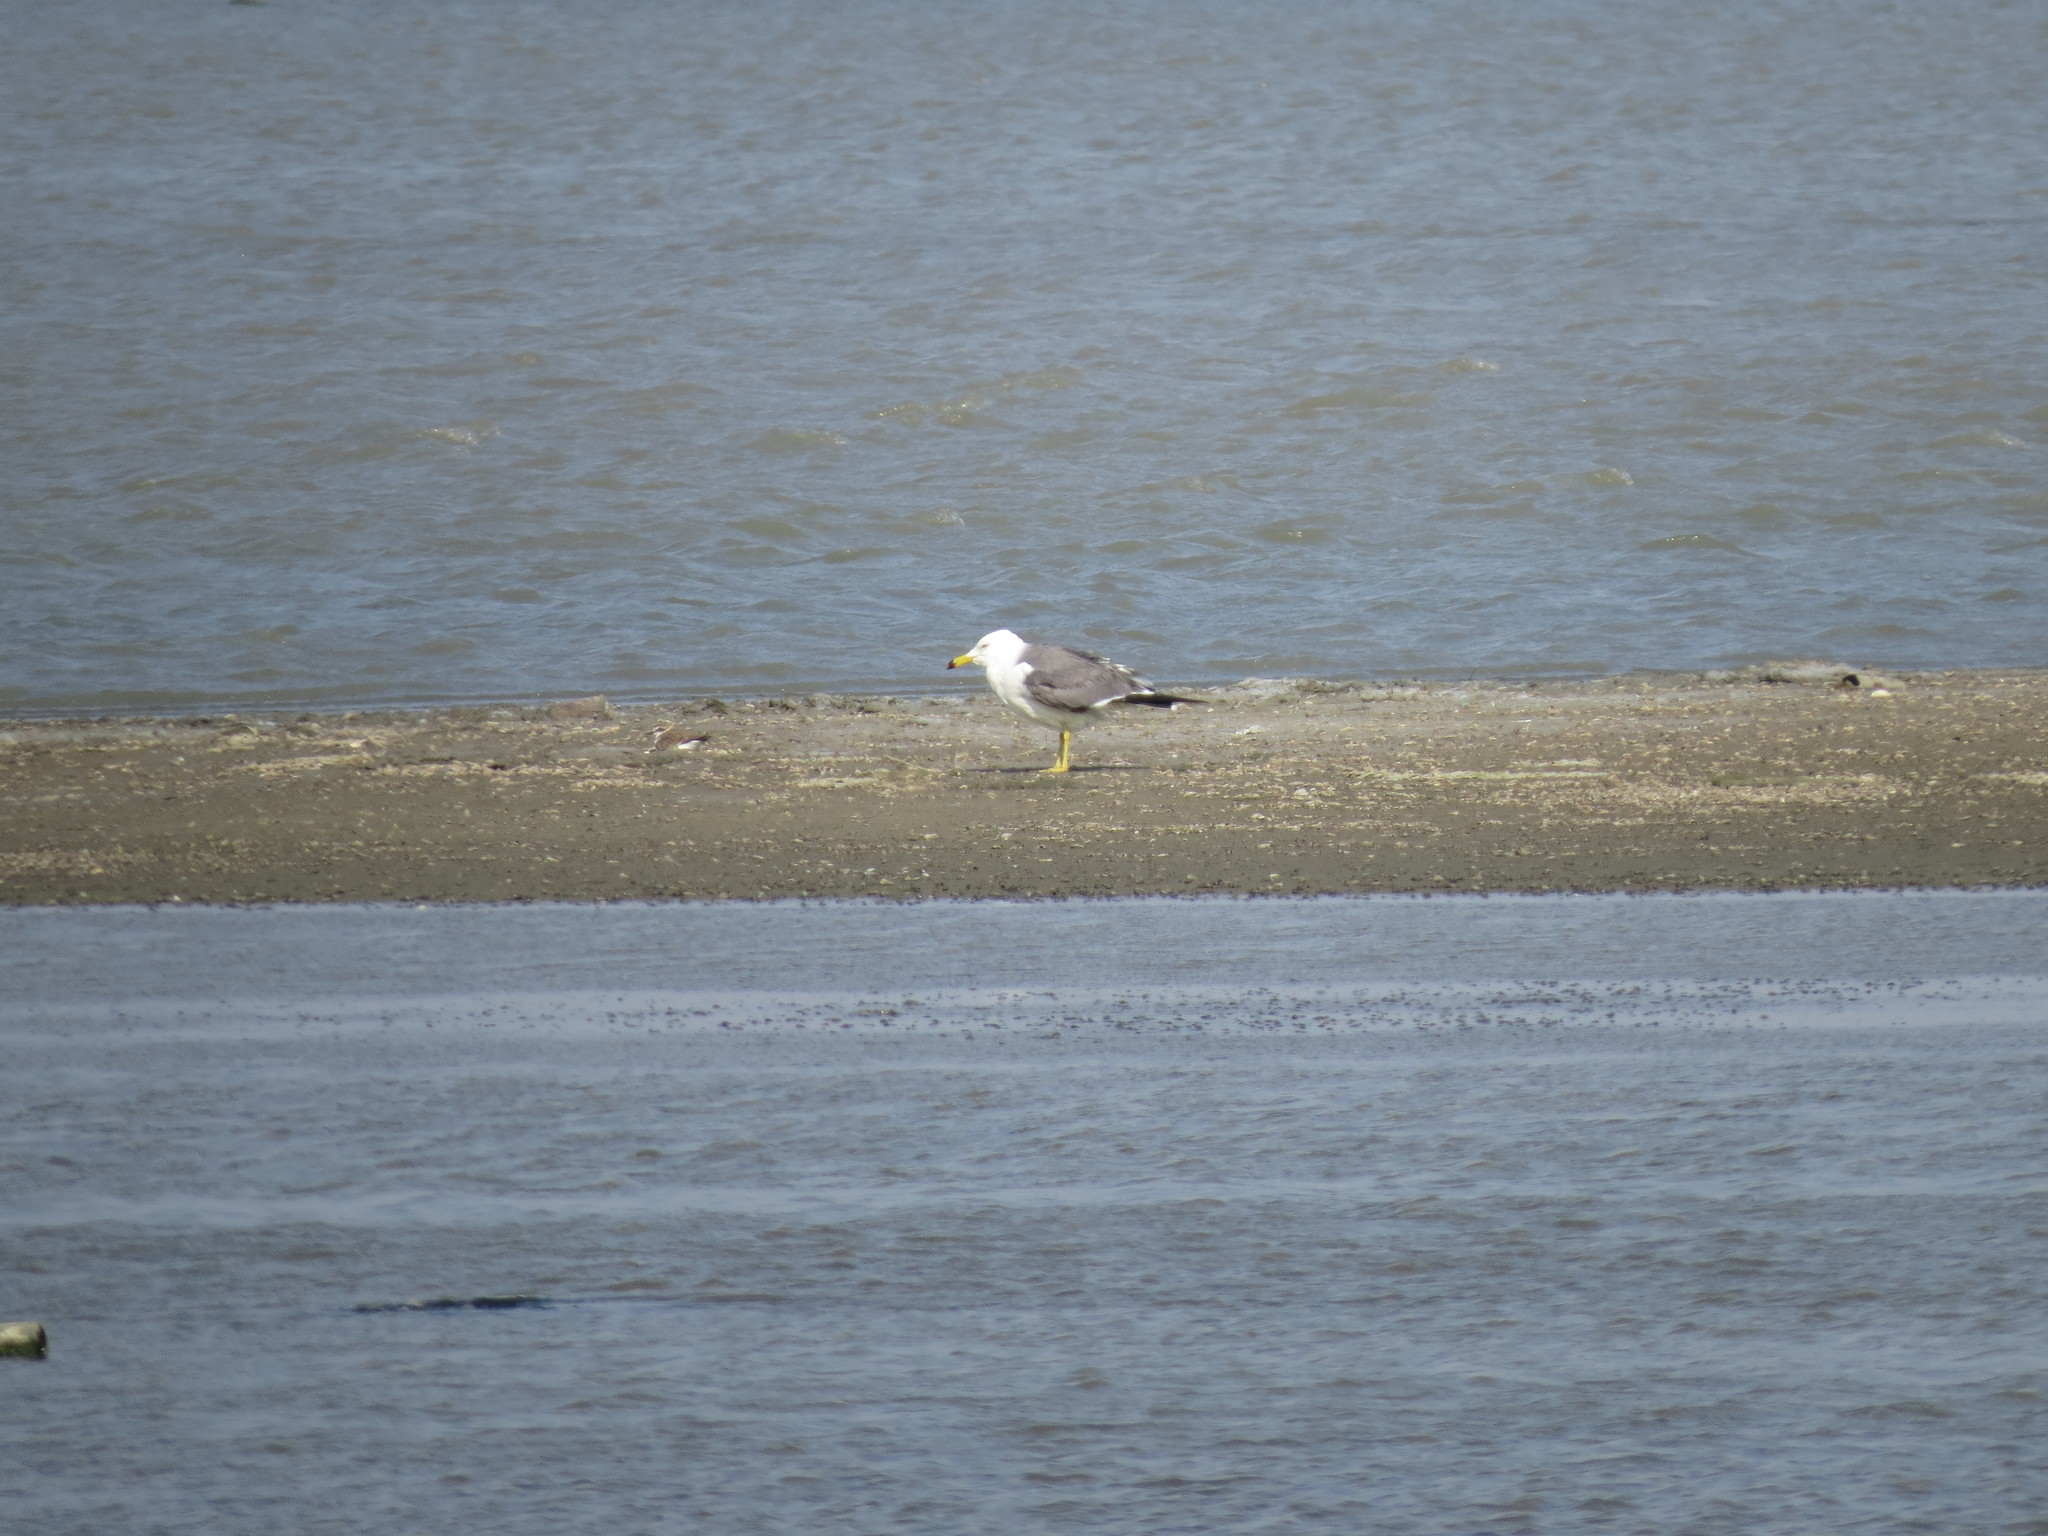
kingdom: Animalia
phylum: Chordata
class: Aves
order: Charadriiformes
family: Laridae
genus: Larus
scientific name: Larus crassirostris
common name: Black-tailed gull
